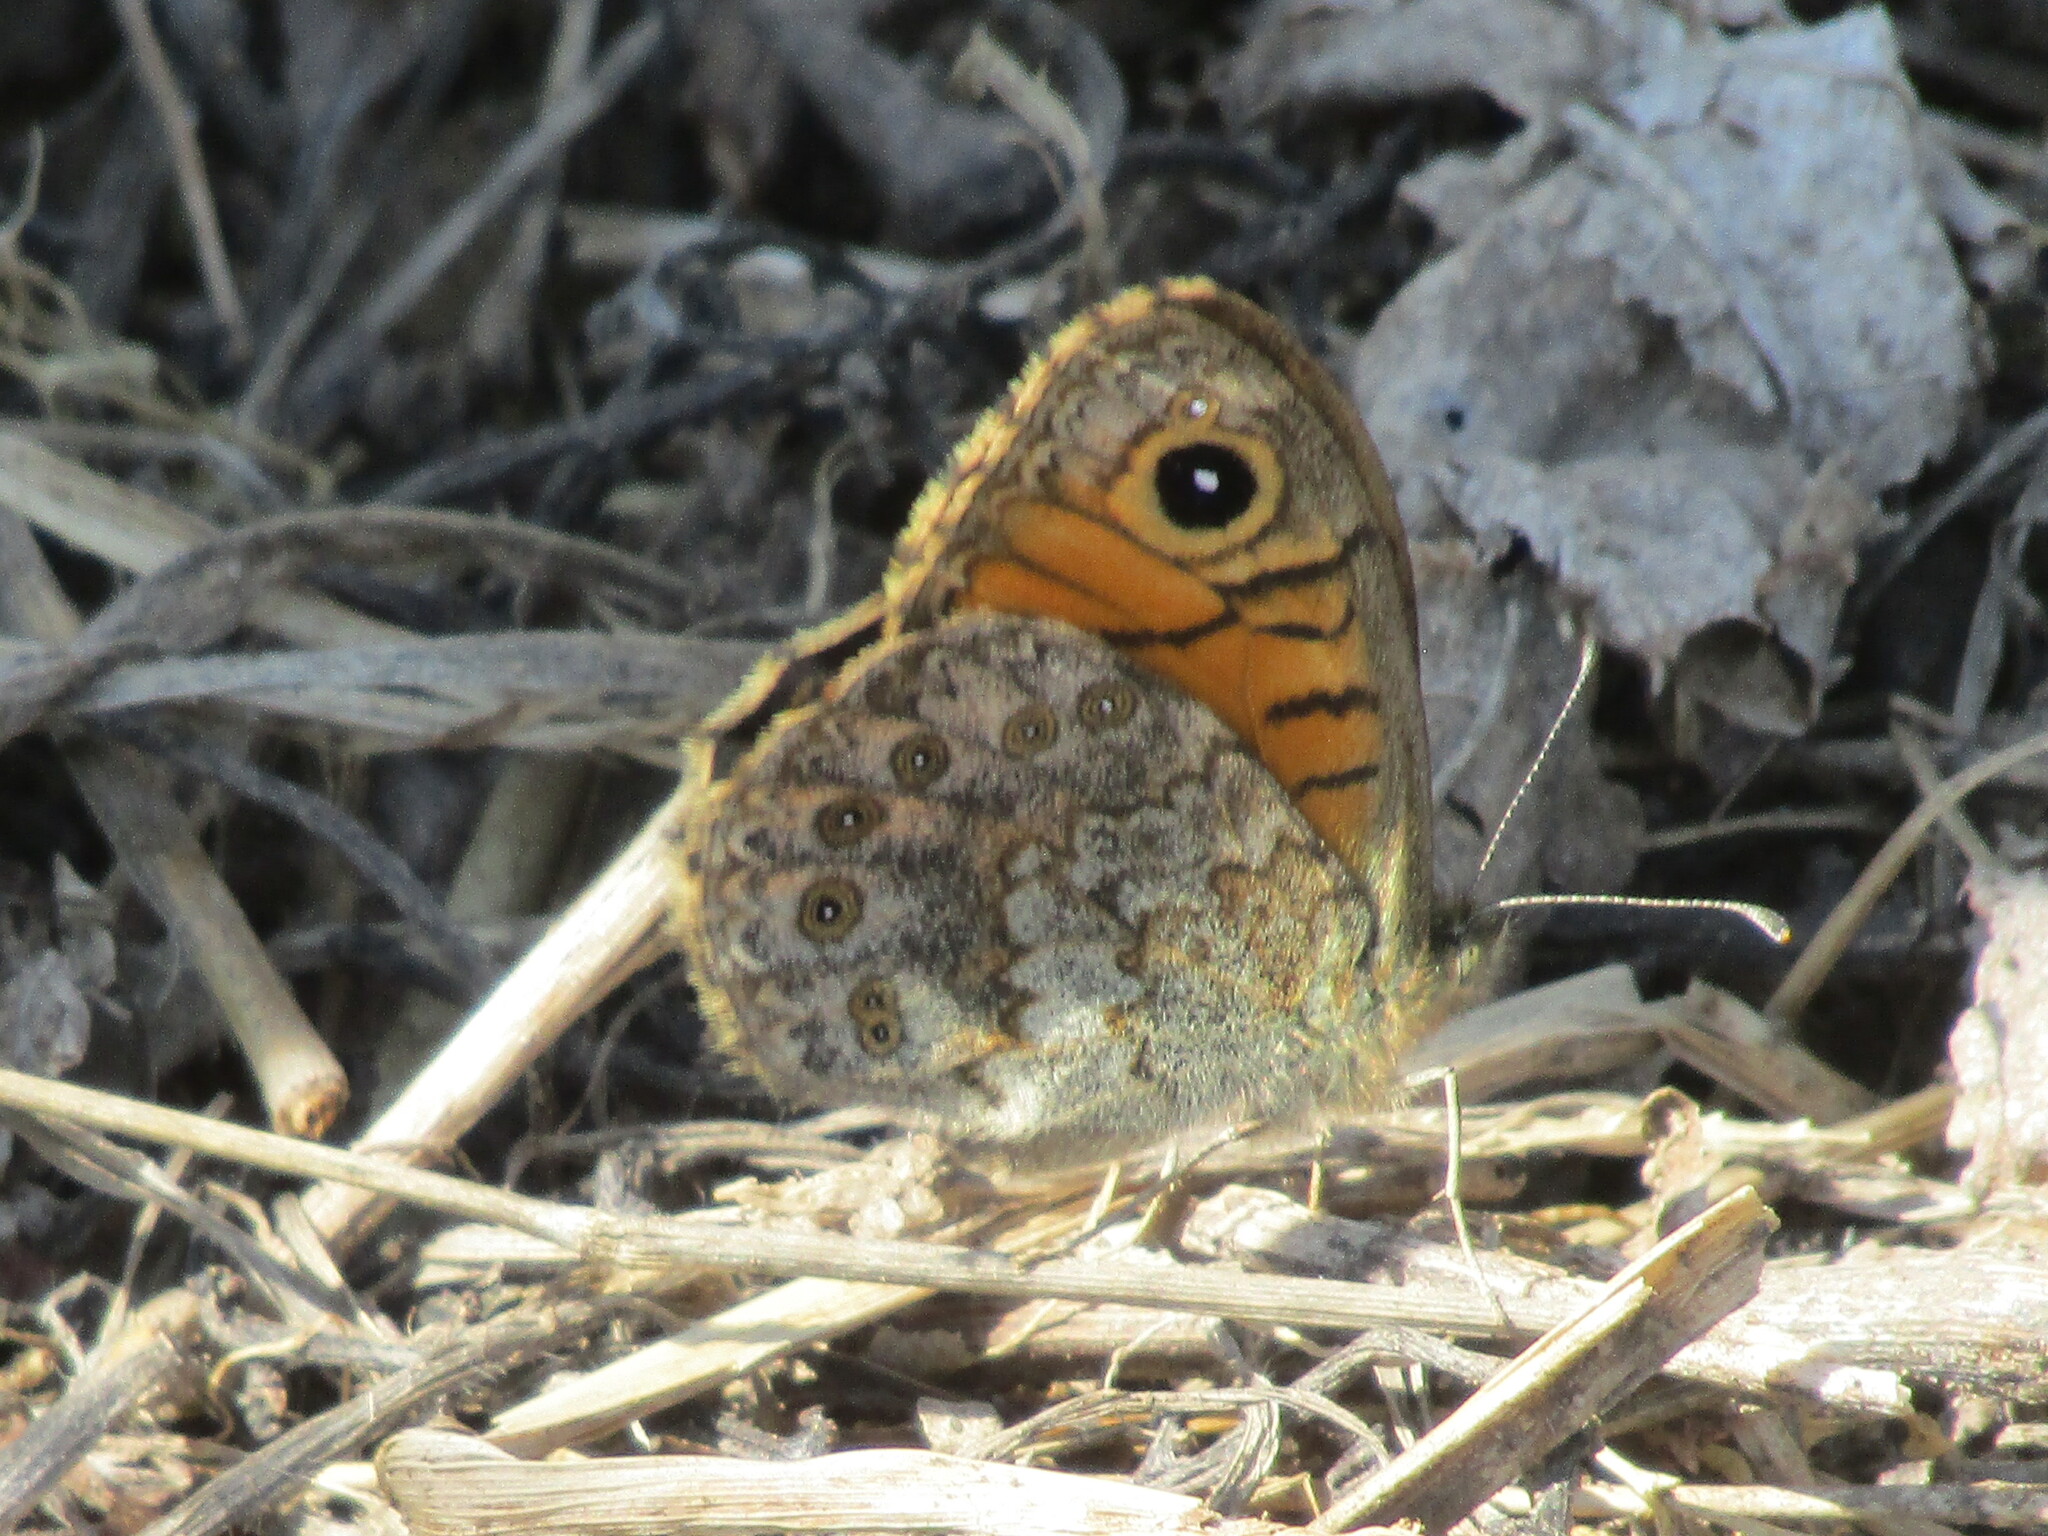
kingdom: Animalia
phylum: Arthropoda
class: Insecta
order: Lepidoptera
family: Nymphalidae
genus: Pararge
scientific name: Pararge Lasiommata megera
